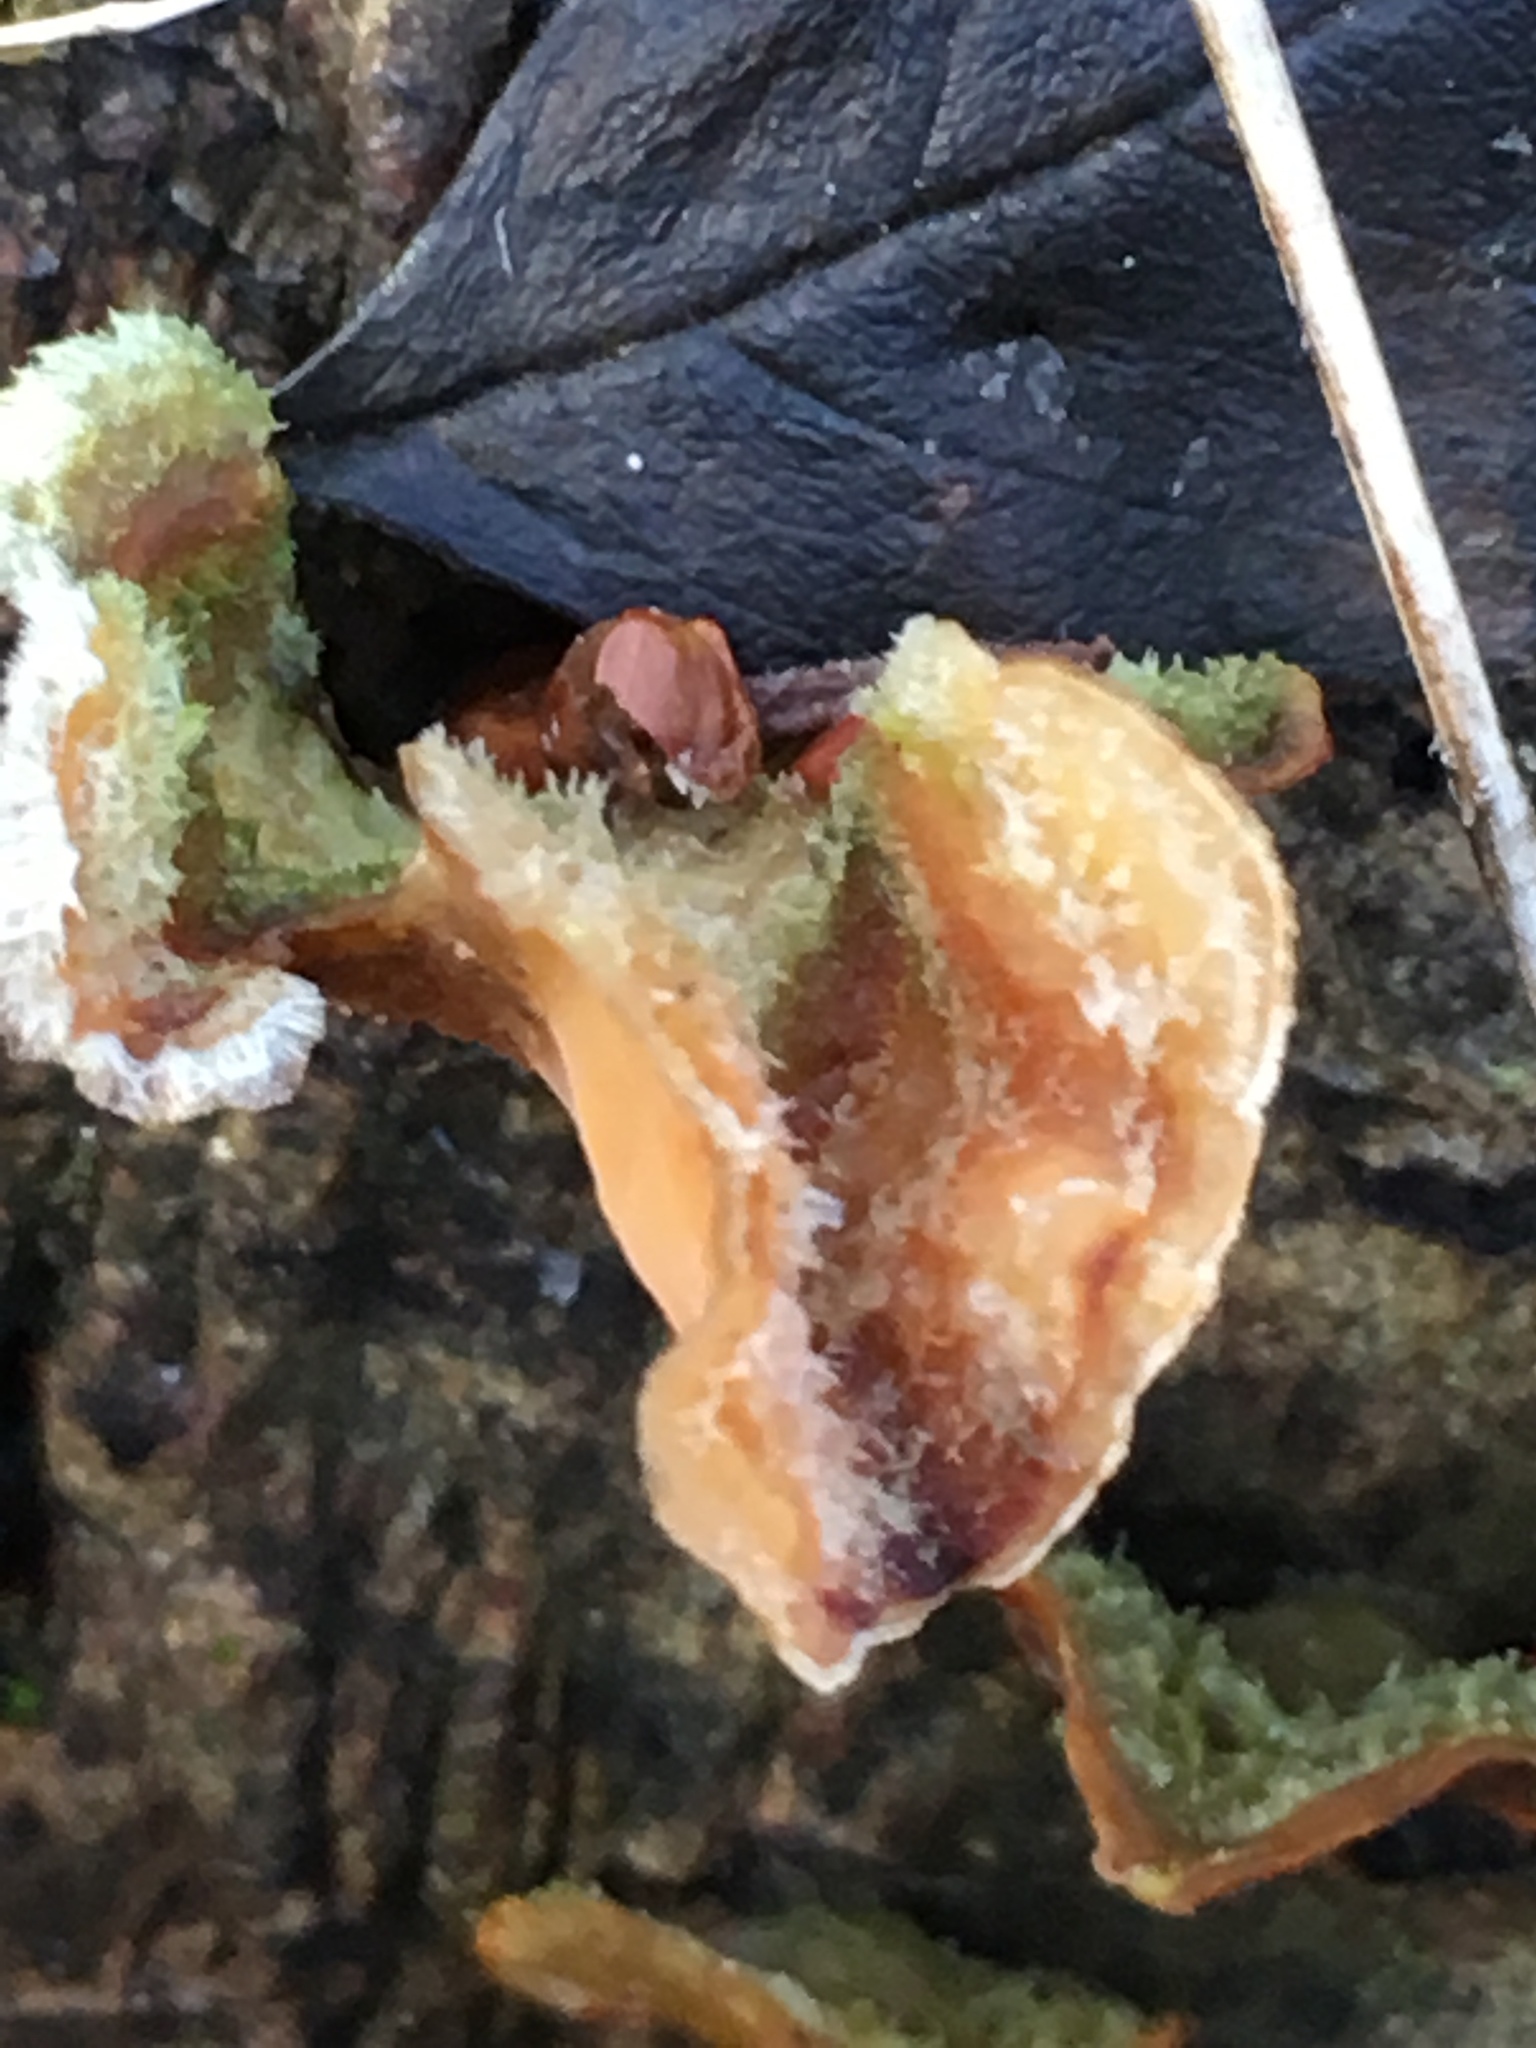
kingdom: Fungi
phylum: Basidiomycota
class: Agaricomycetes
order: Russulales
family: Stereaceae
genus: Stereum
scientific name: Stereum hirsutum
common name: Hairy curtain crust
